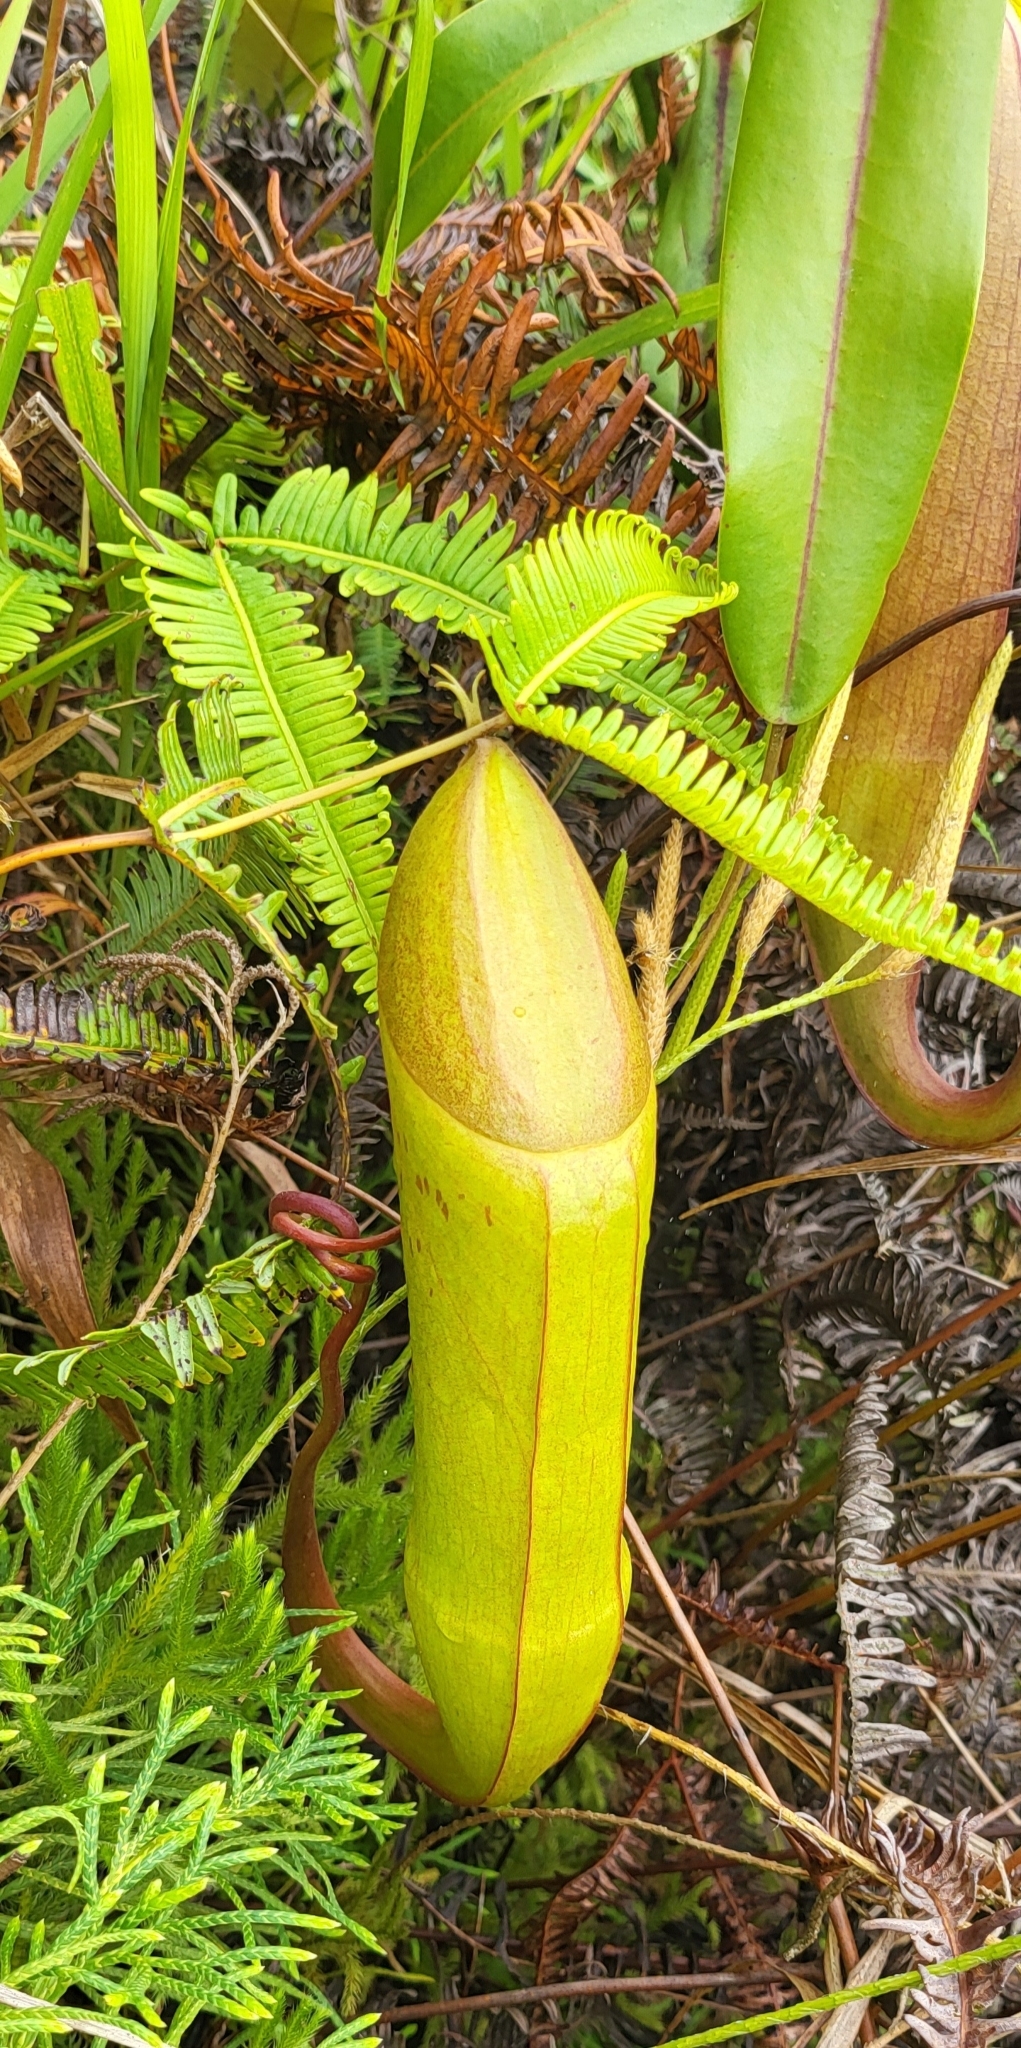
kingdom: Plantae
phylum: Tracheophyta
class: Magnoliopsida
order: Caryophyllales
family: Nepenthaceae
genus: Nepenthes
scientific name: Nepenthes sanguinea
